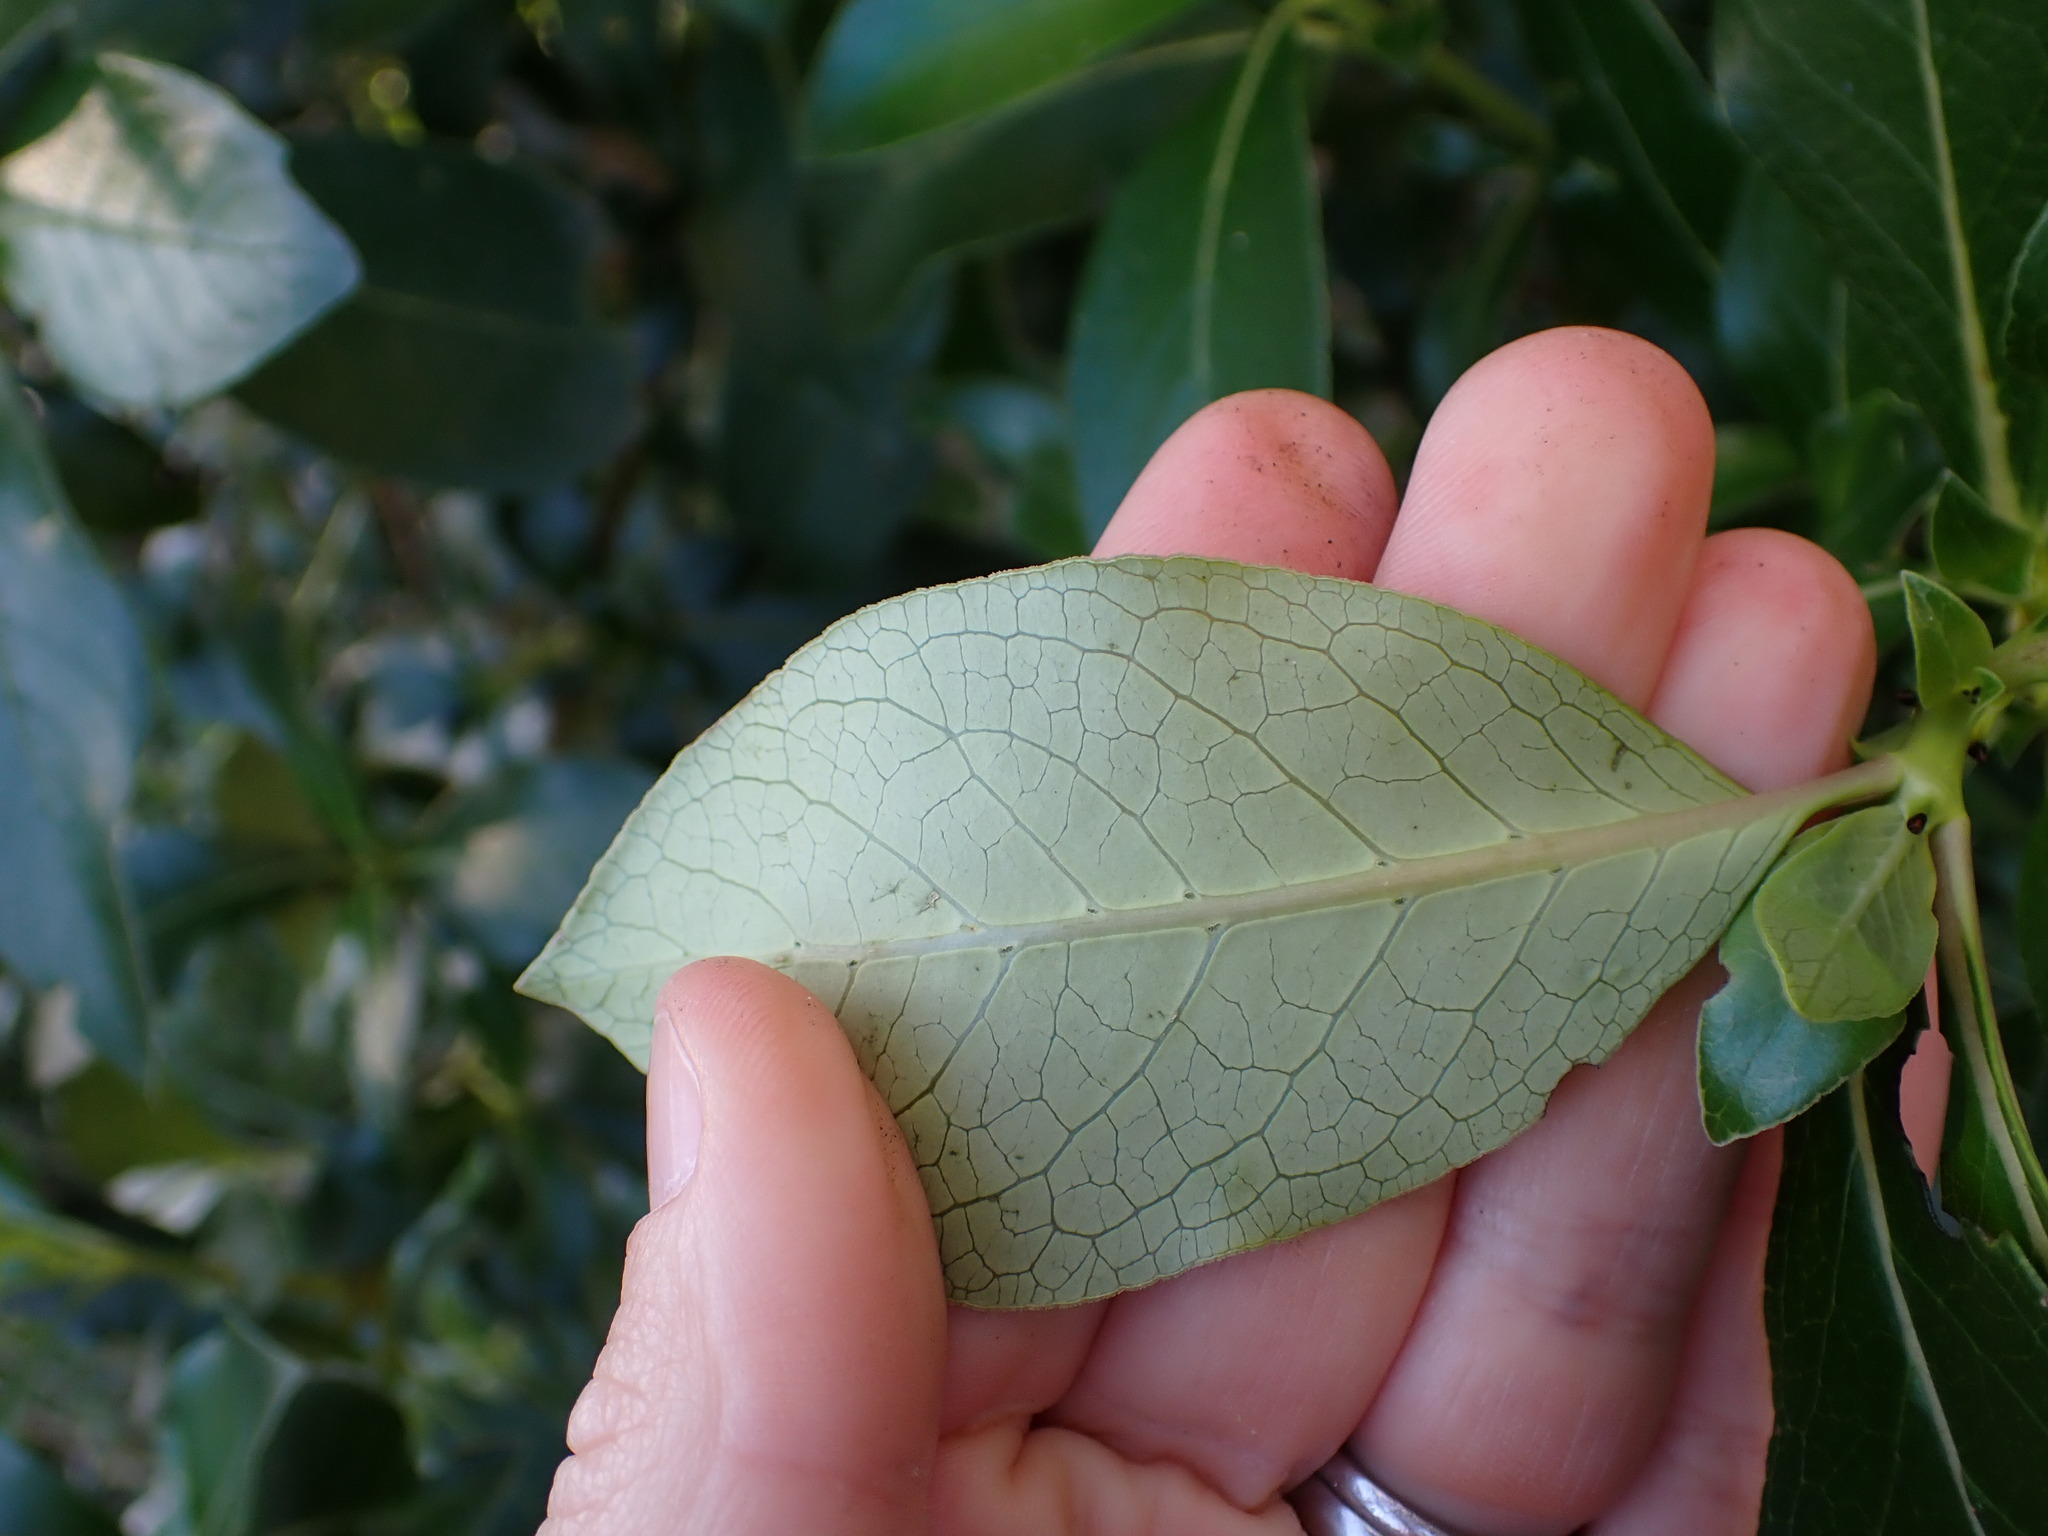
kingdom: Plantae
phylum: Tracheophyta
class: Magnoliopsida
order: Gentianales
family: Rubiaceae
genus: Coprosma
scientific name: Coprosma robusta
